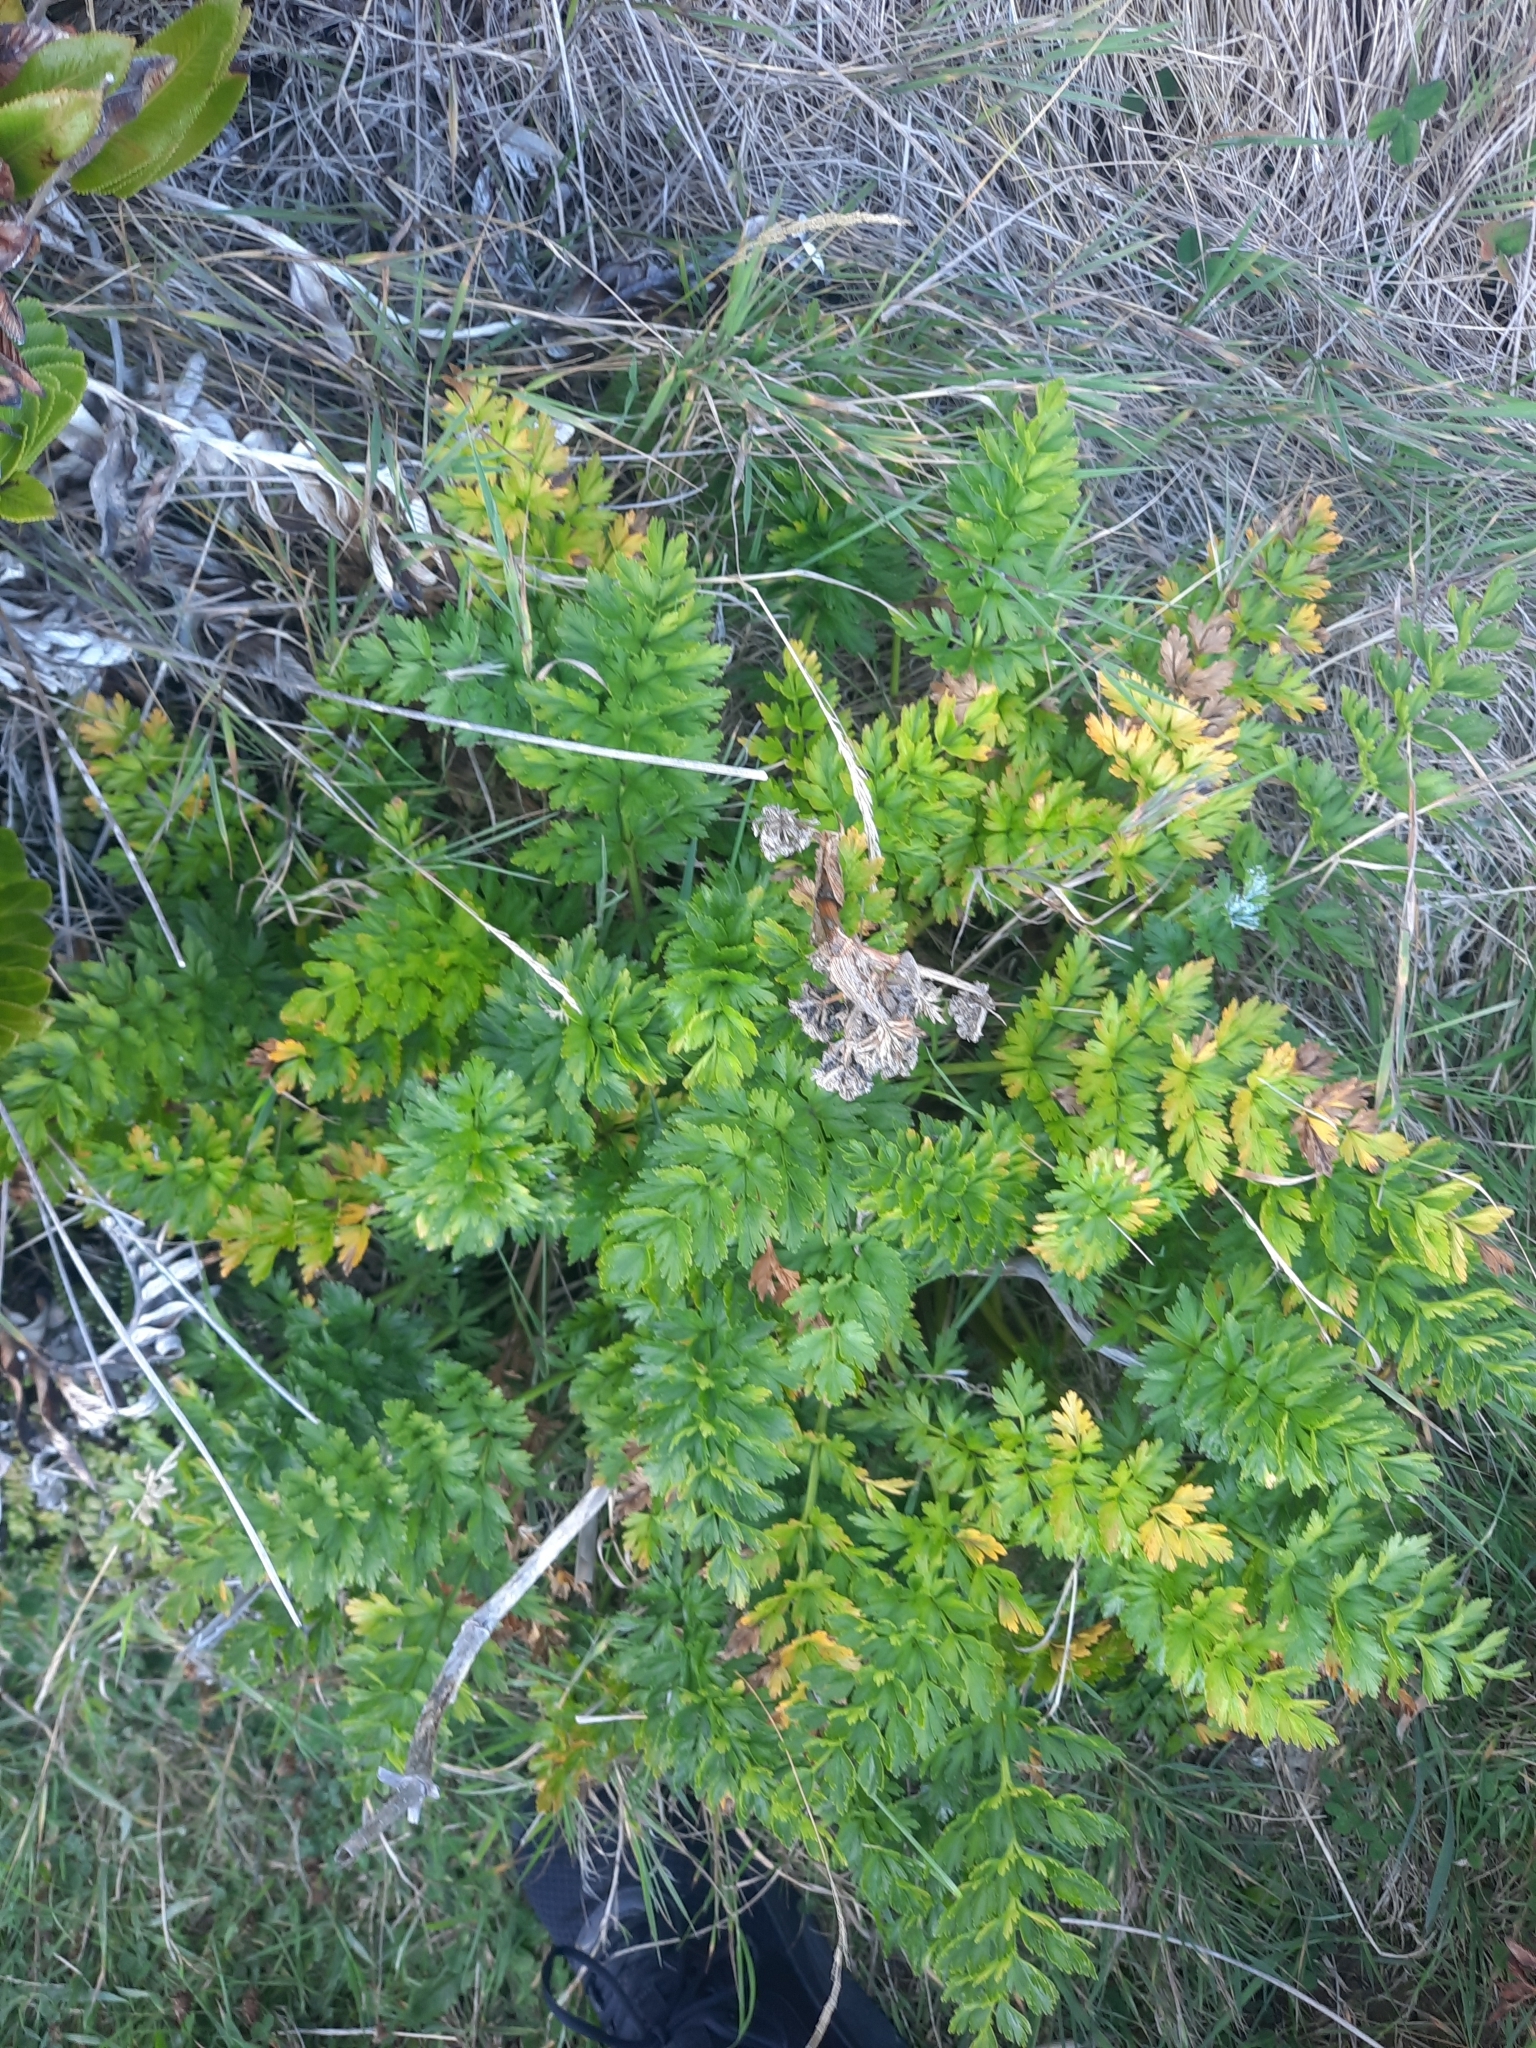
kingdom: Plantae
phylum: Tracheophyta
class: Magnoliopsida
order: Apiales
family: Apiaceae
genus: Anisotome
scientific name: Anisotome lyallii
